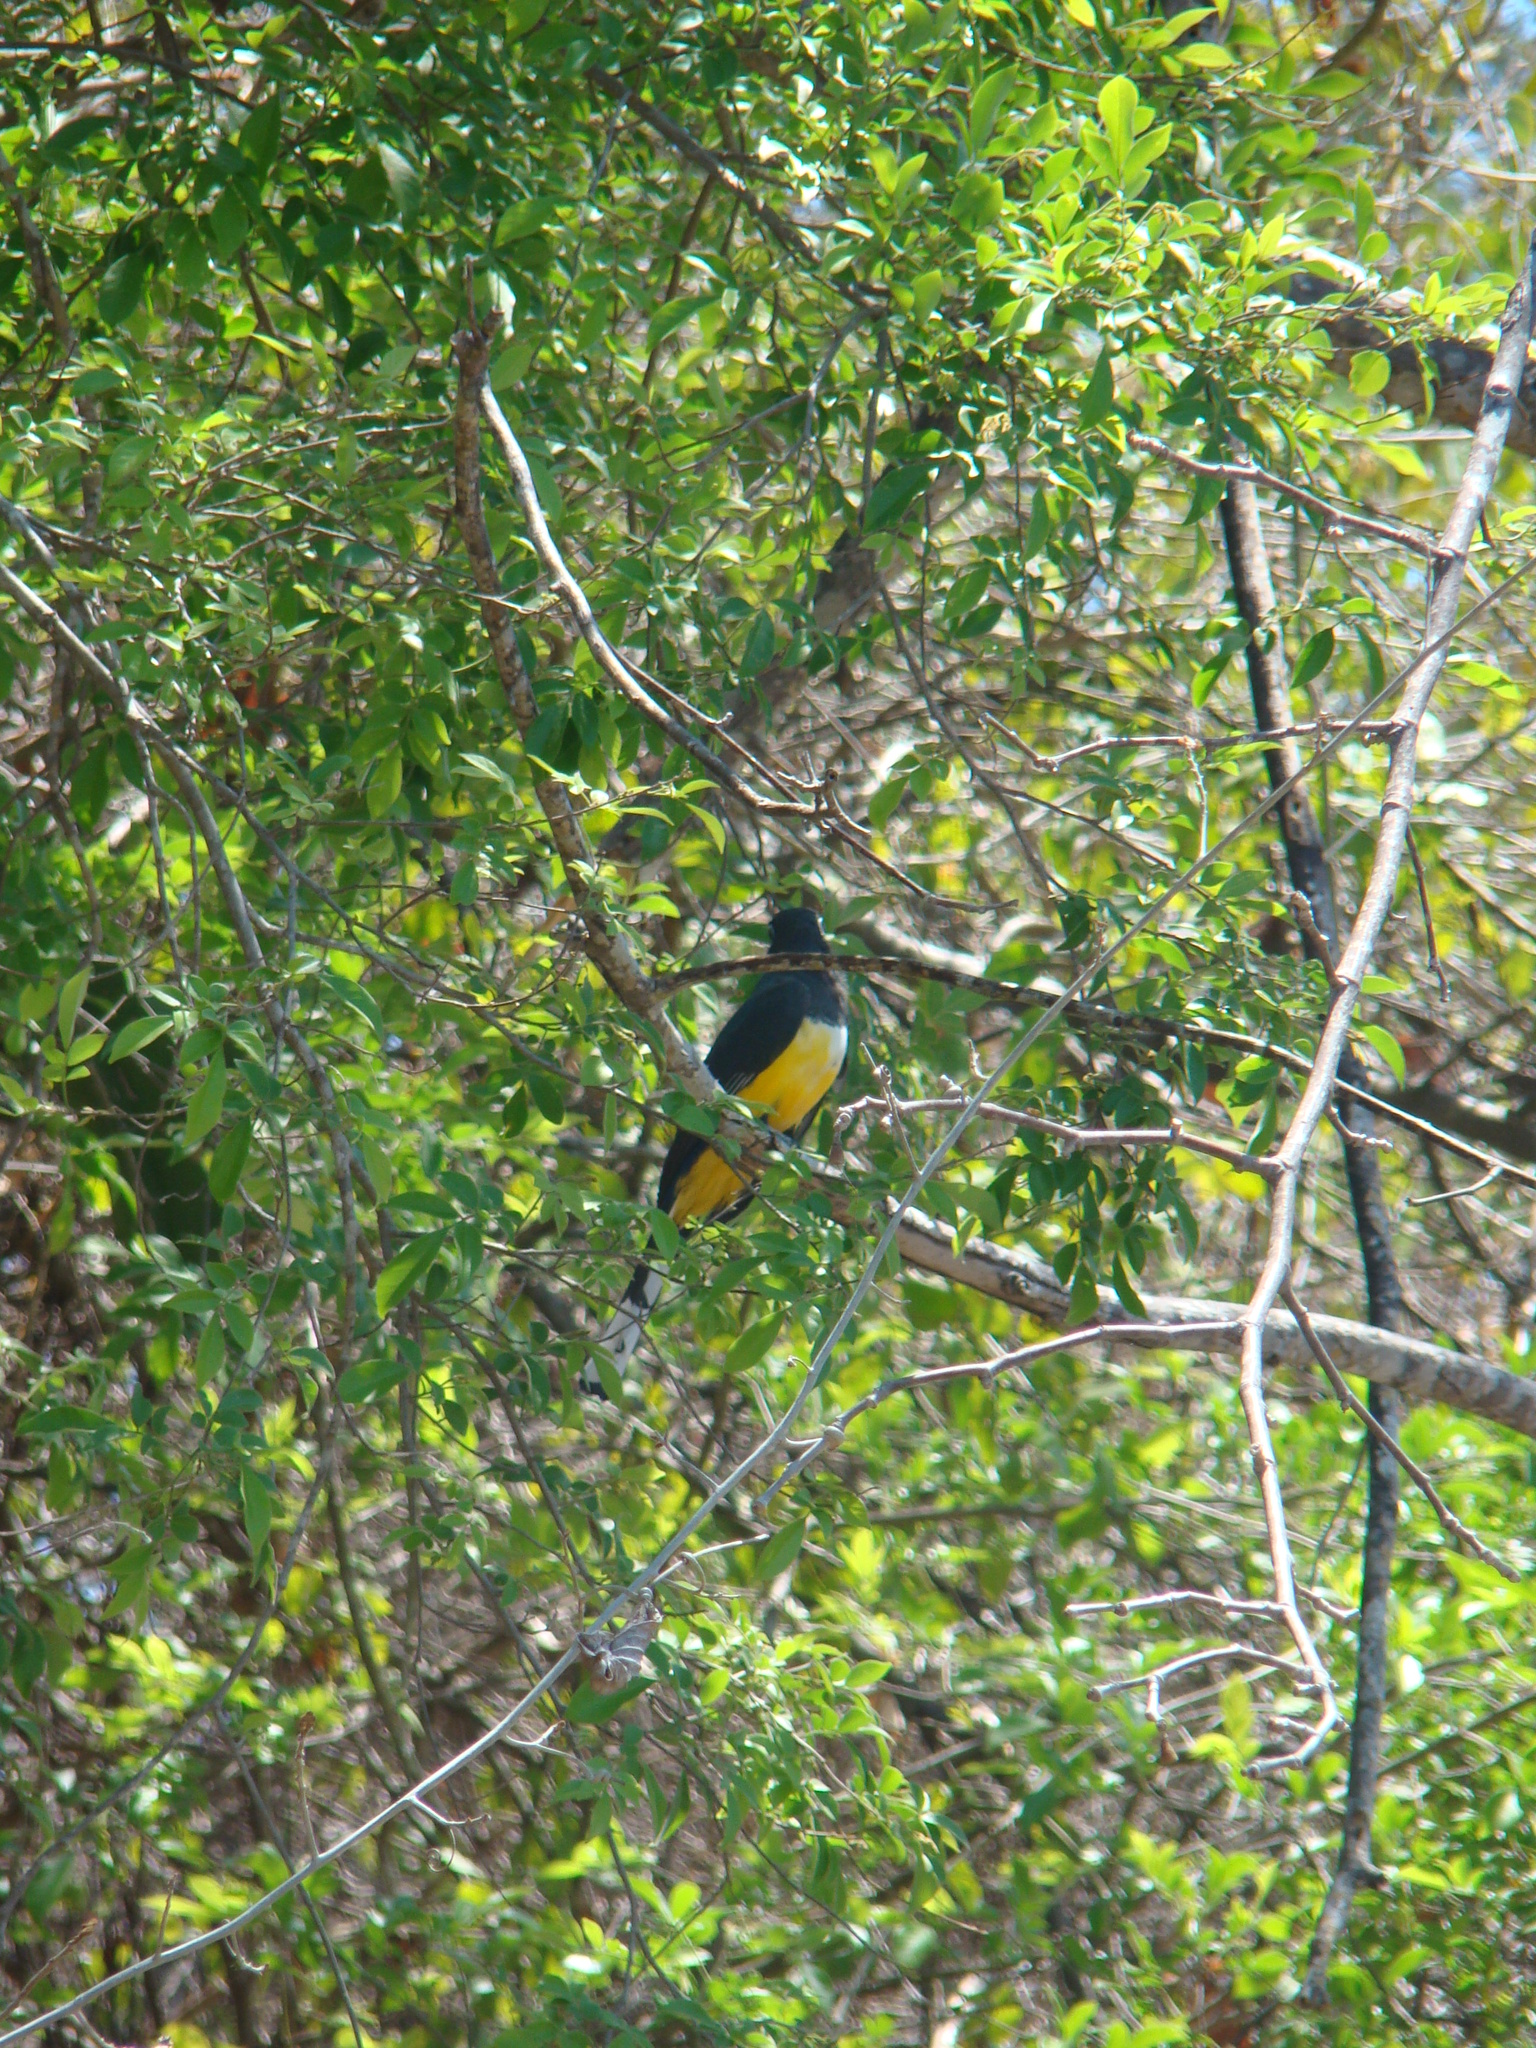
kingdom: Animalia
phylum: Chordata
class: Aves
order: Trogoniformes
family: Trogonidae
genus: Trogon
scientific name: Trogon melanocephalus
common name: Black-headed trogon
